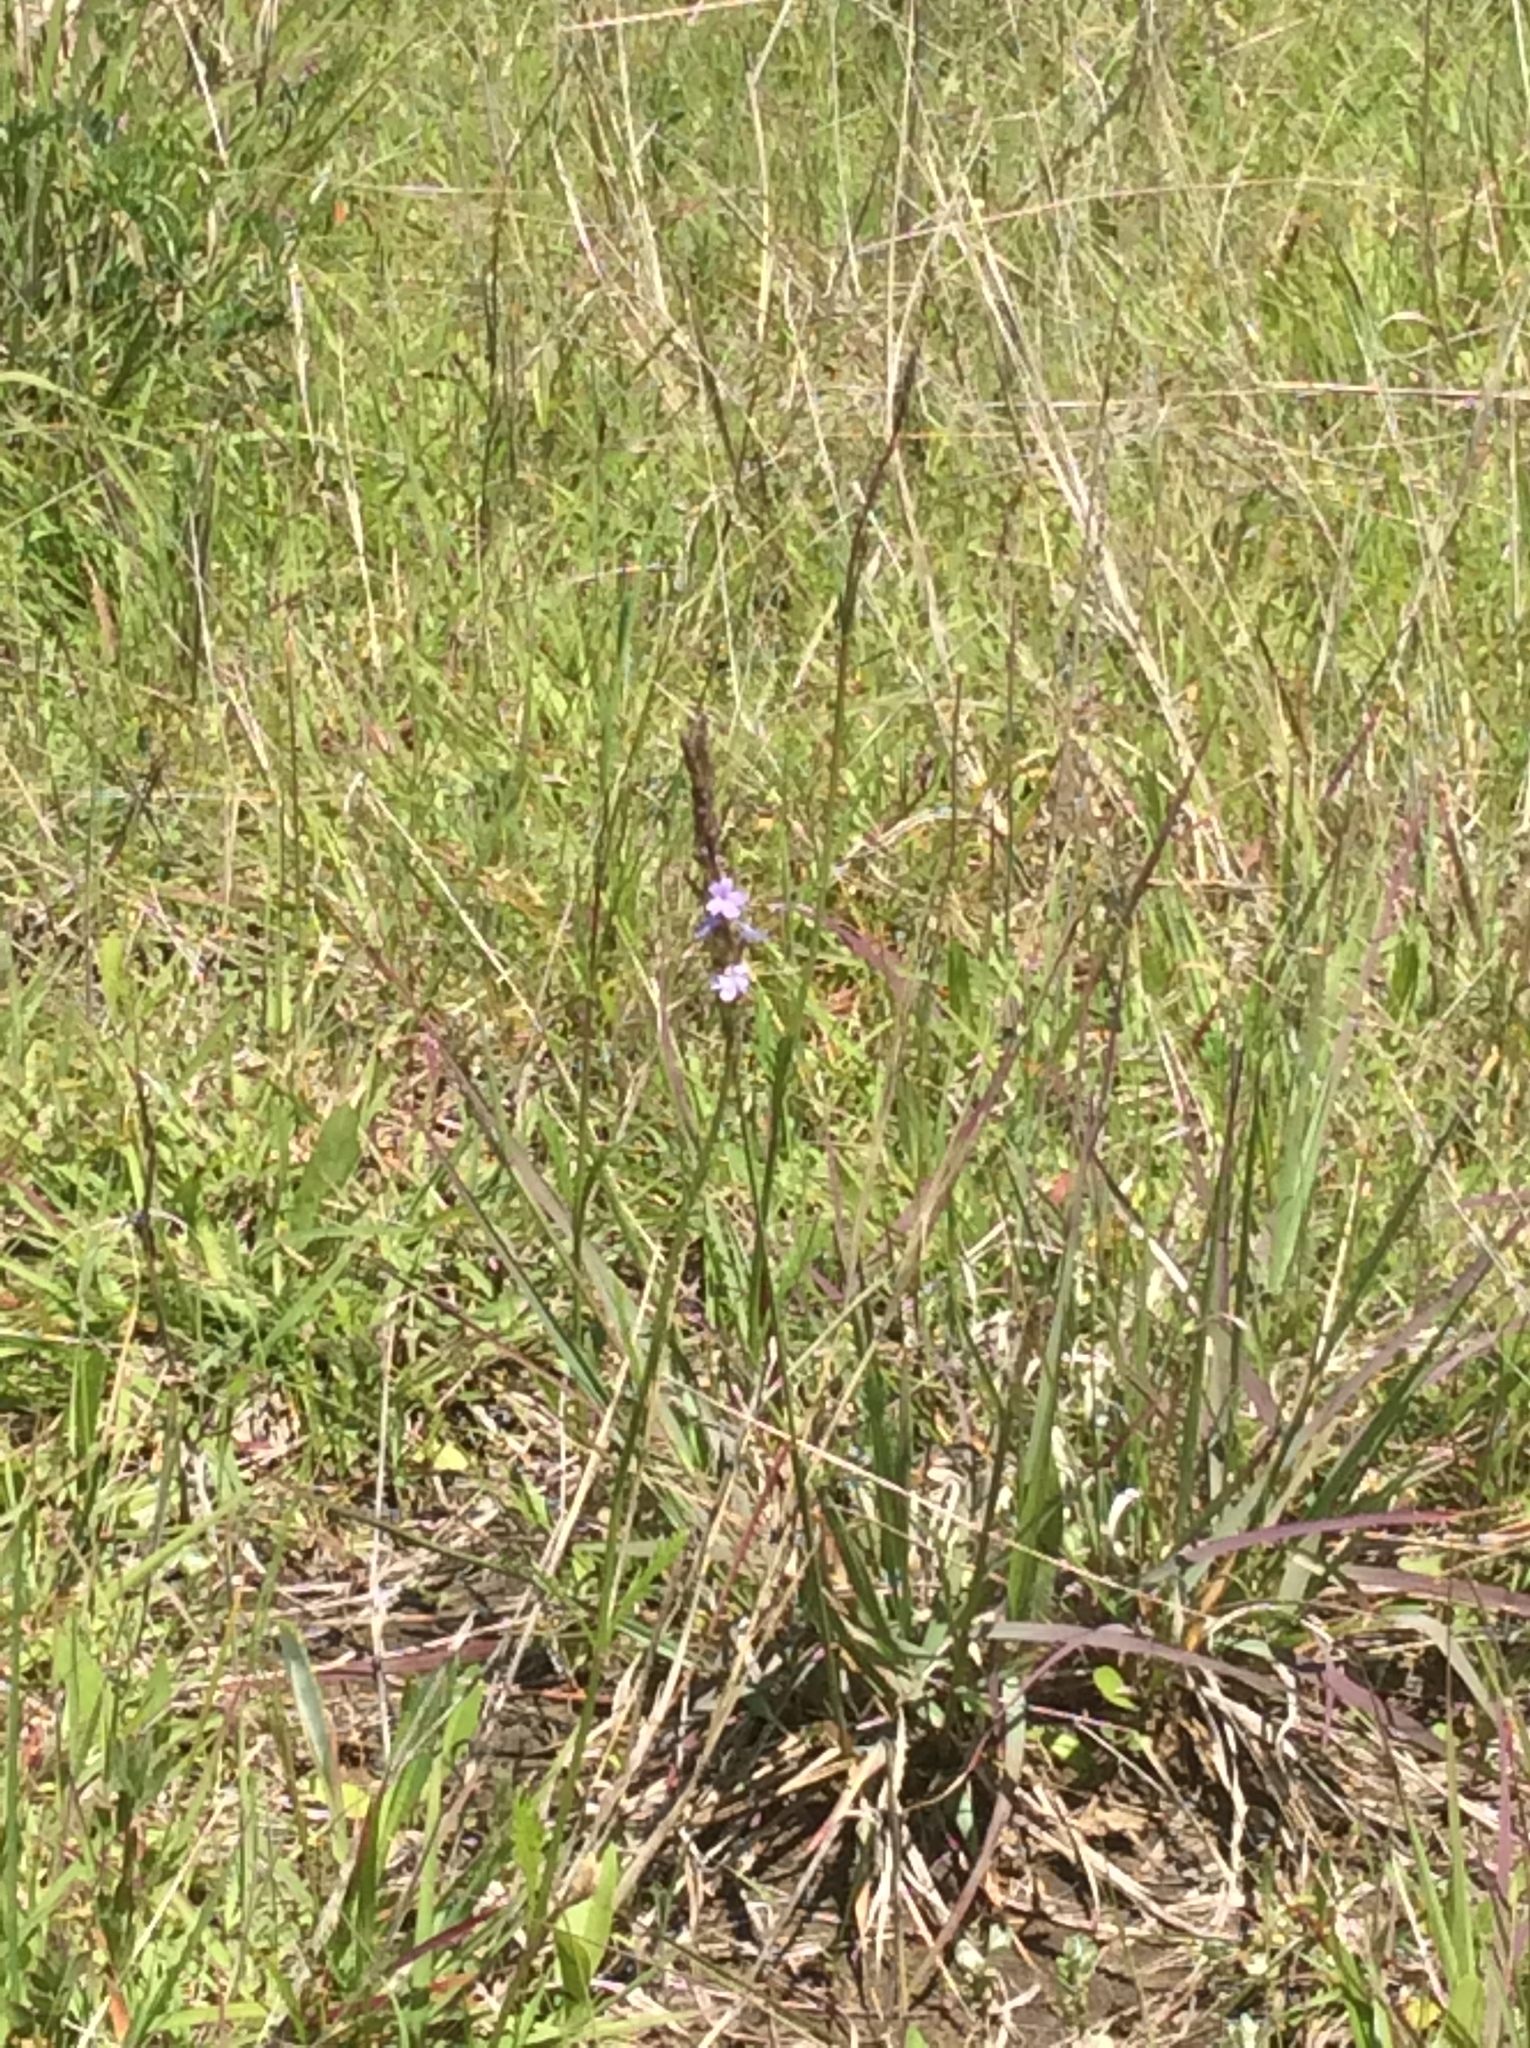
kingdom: Plantae
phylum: Tracheophyta
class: Magnoliopsida
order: Lamiales
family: Verbenaceae
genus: Verbena
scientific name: Verbena halei
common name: Texas vervain
